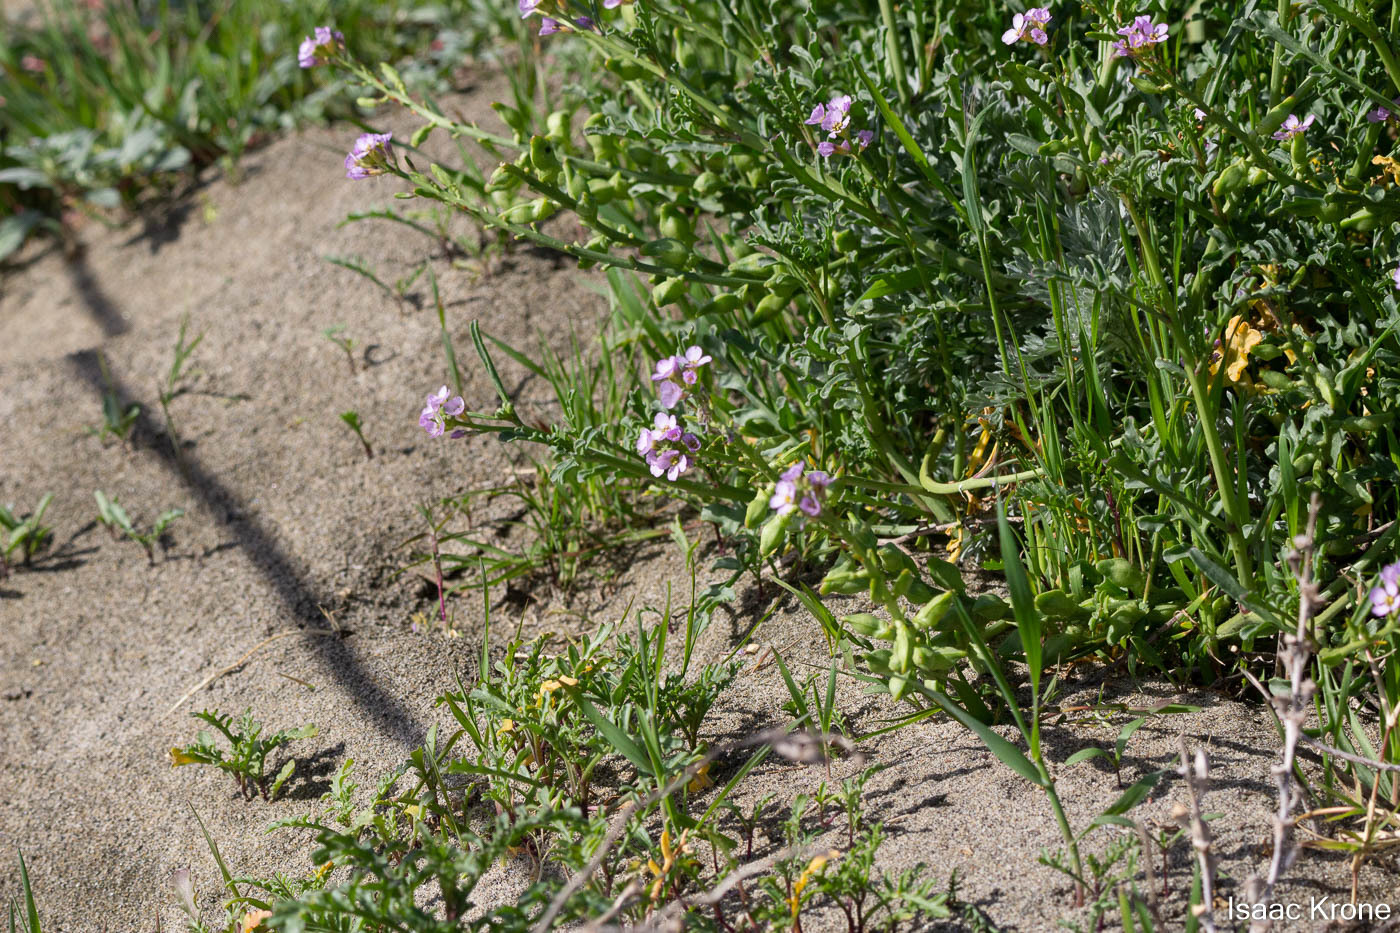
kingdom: Plantae
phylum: Tracheophyta
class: Magnoliopsida
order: Brassicales
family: Brassicaceae
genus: Cakile
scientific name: Cakile maritima
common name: Sea rocket
